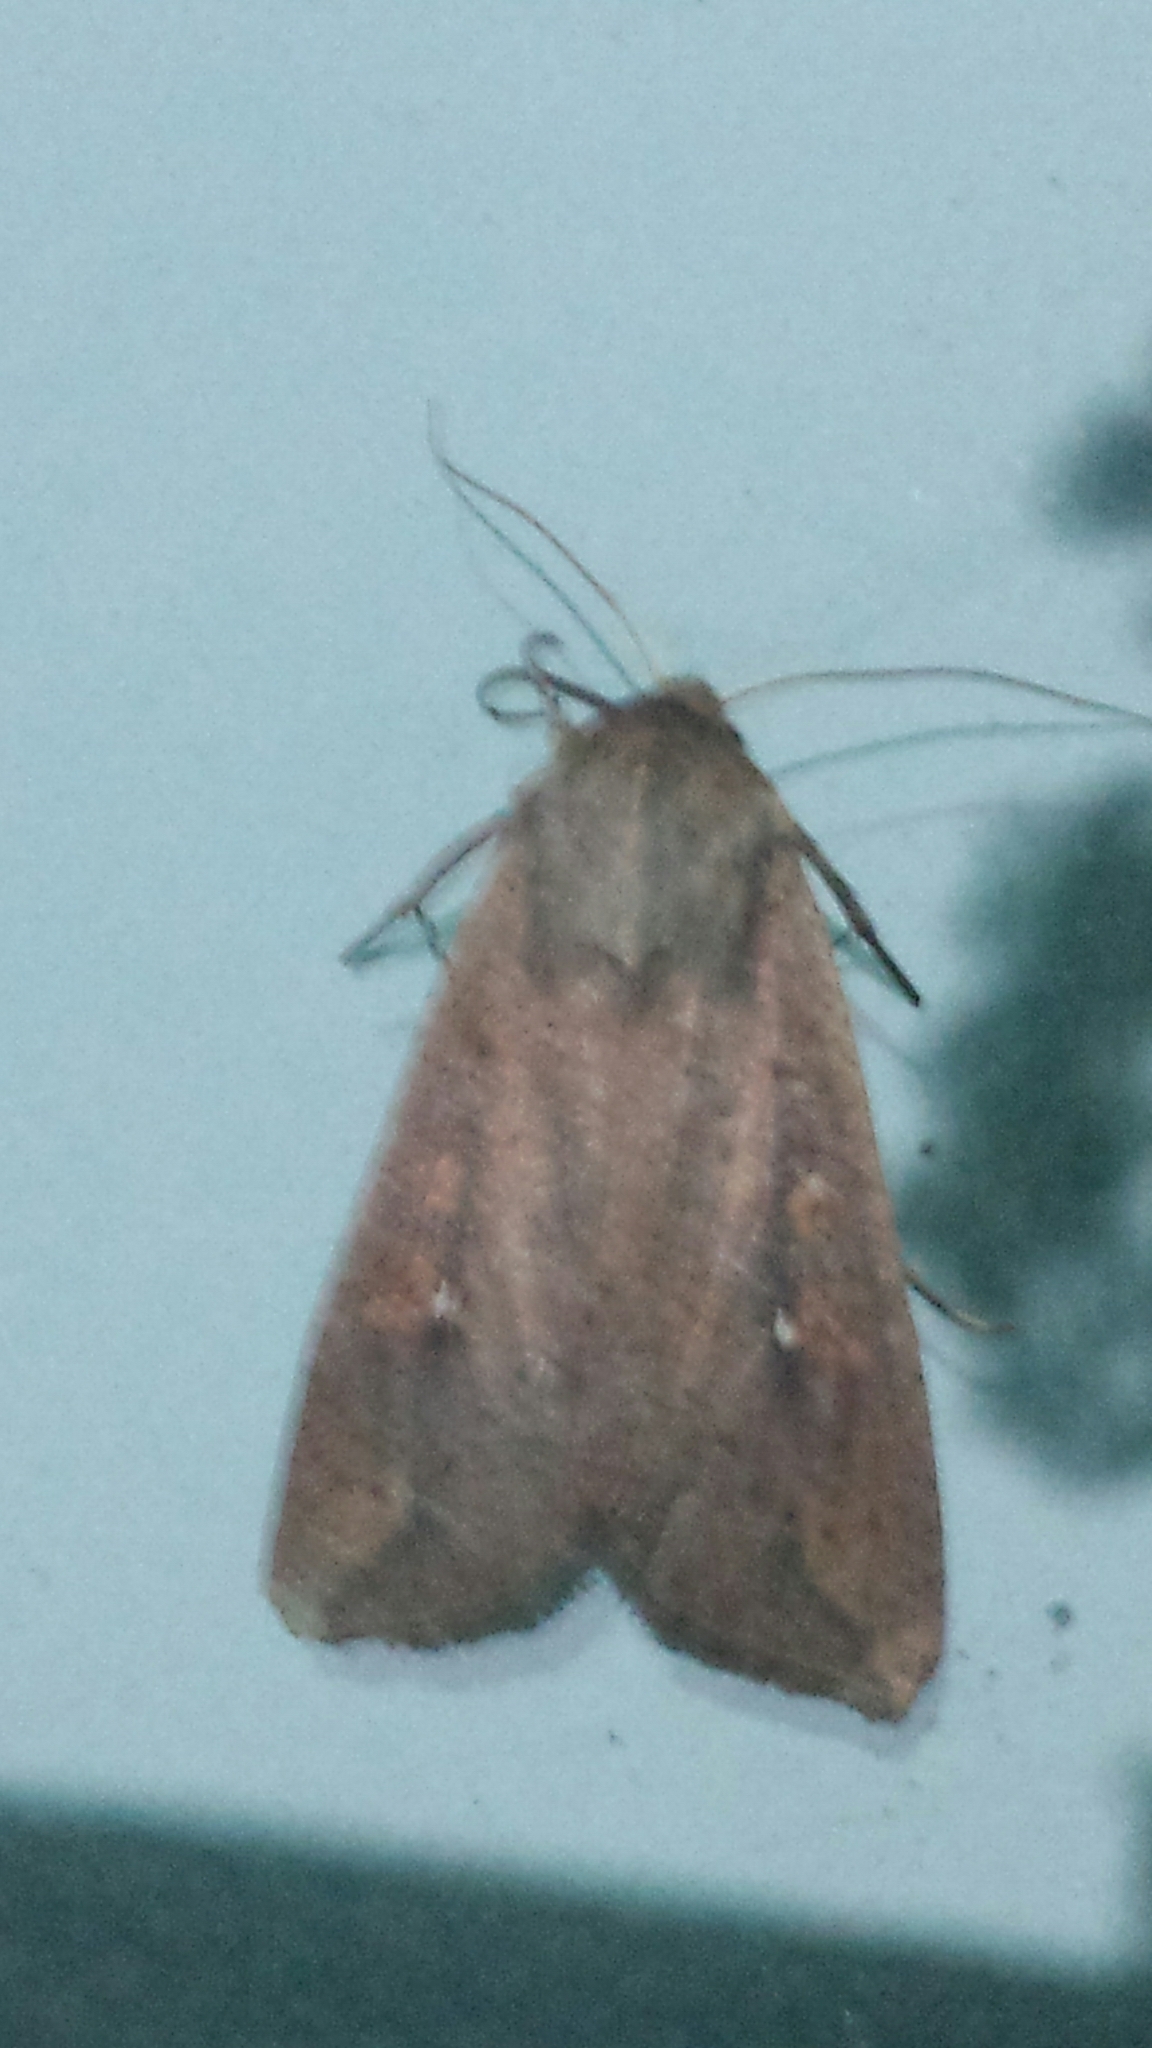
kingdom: Animalia
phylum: Arthropoda
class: Insecta
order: Lepidoptera
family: Noctuidae
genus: Mythimna
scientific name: Mythimna unipuncta
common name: White-speck
